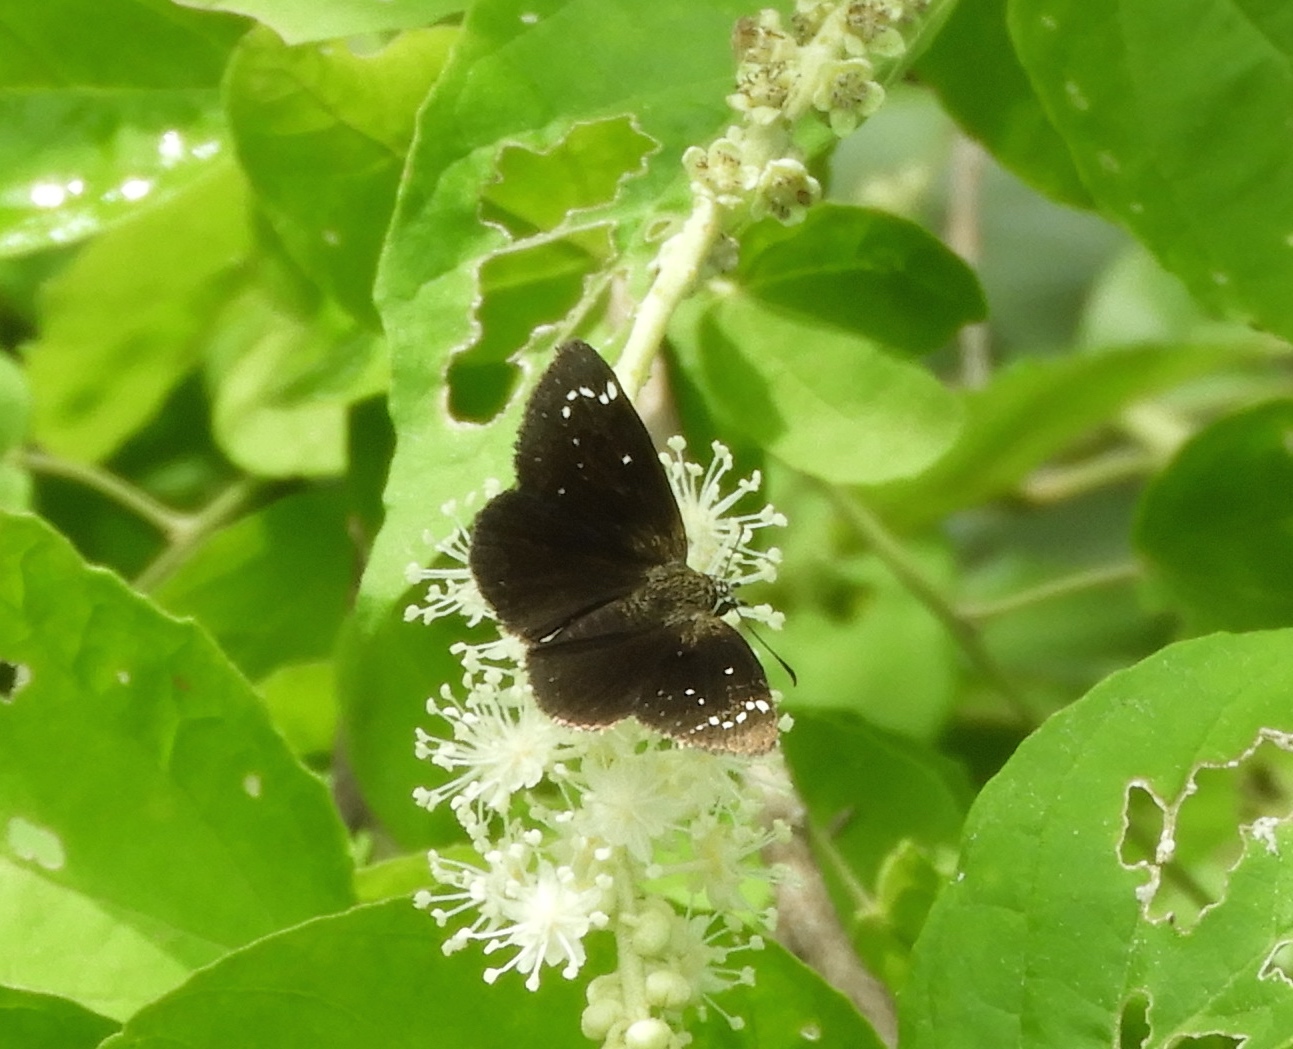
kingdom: Animalia
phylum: Arthropoda
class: Insecta
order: Lepidoptera
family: Hesperiidae
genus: Pholisora
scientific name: Pholisora
